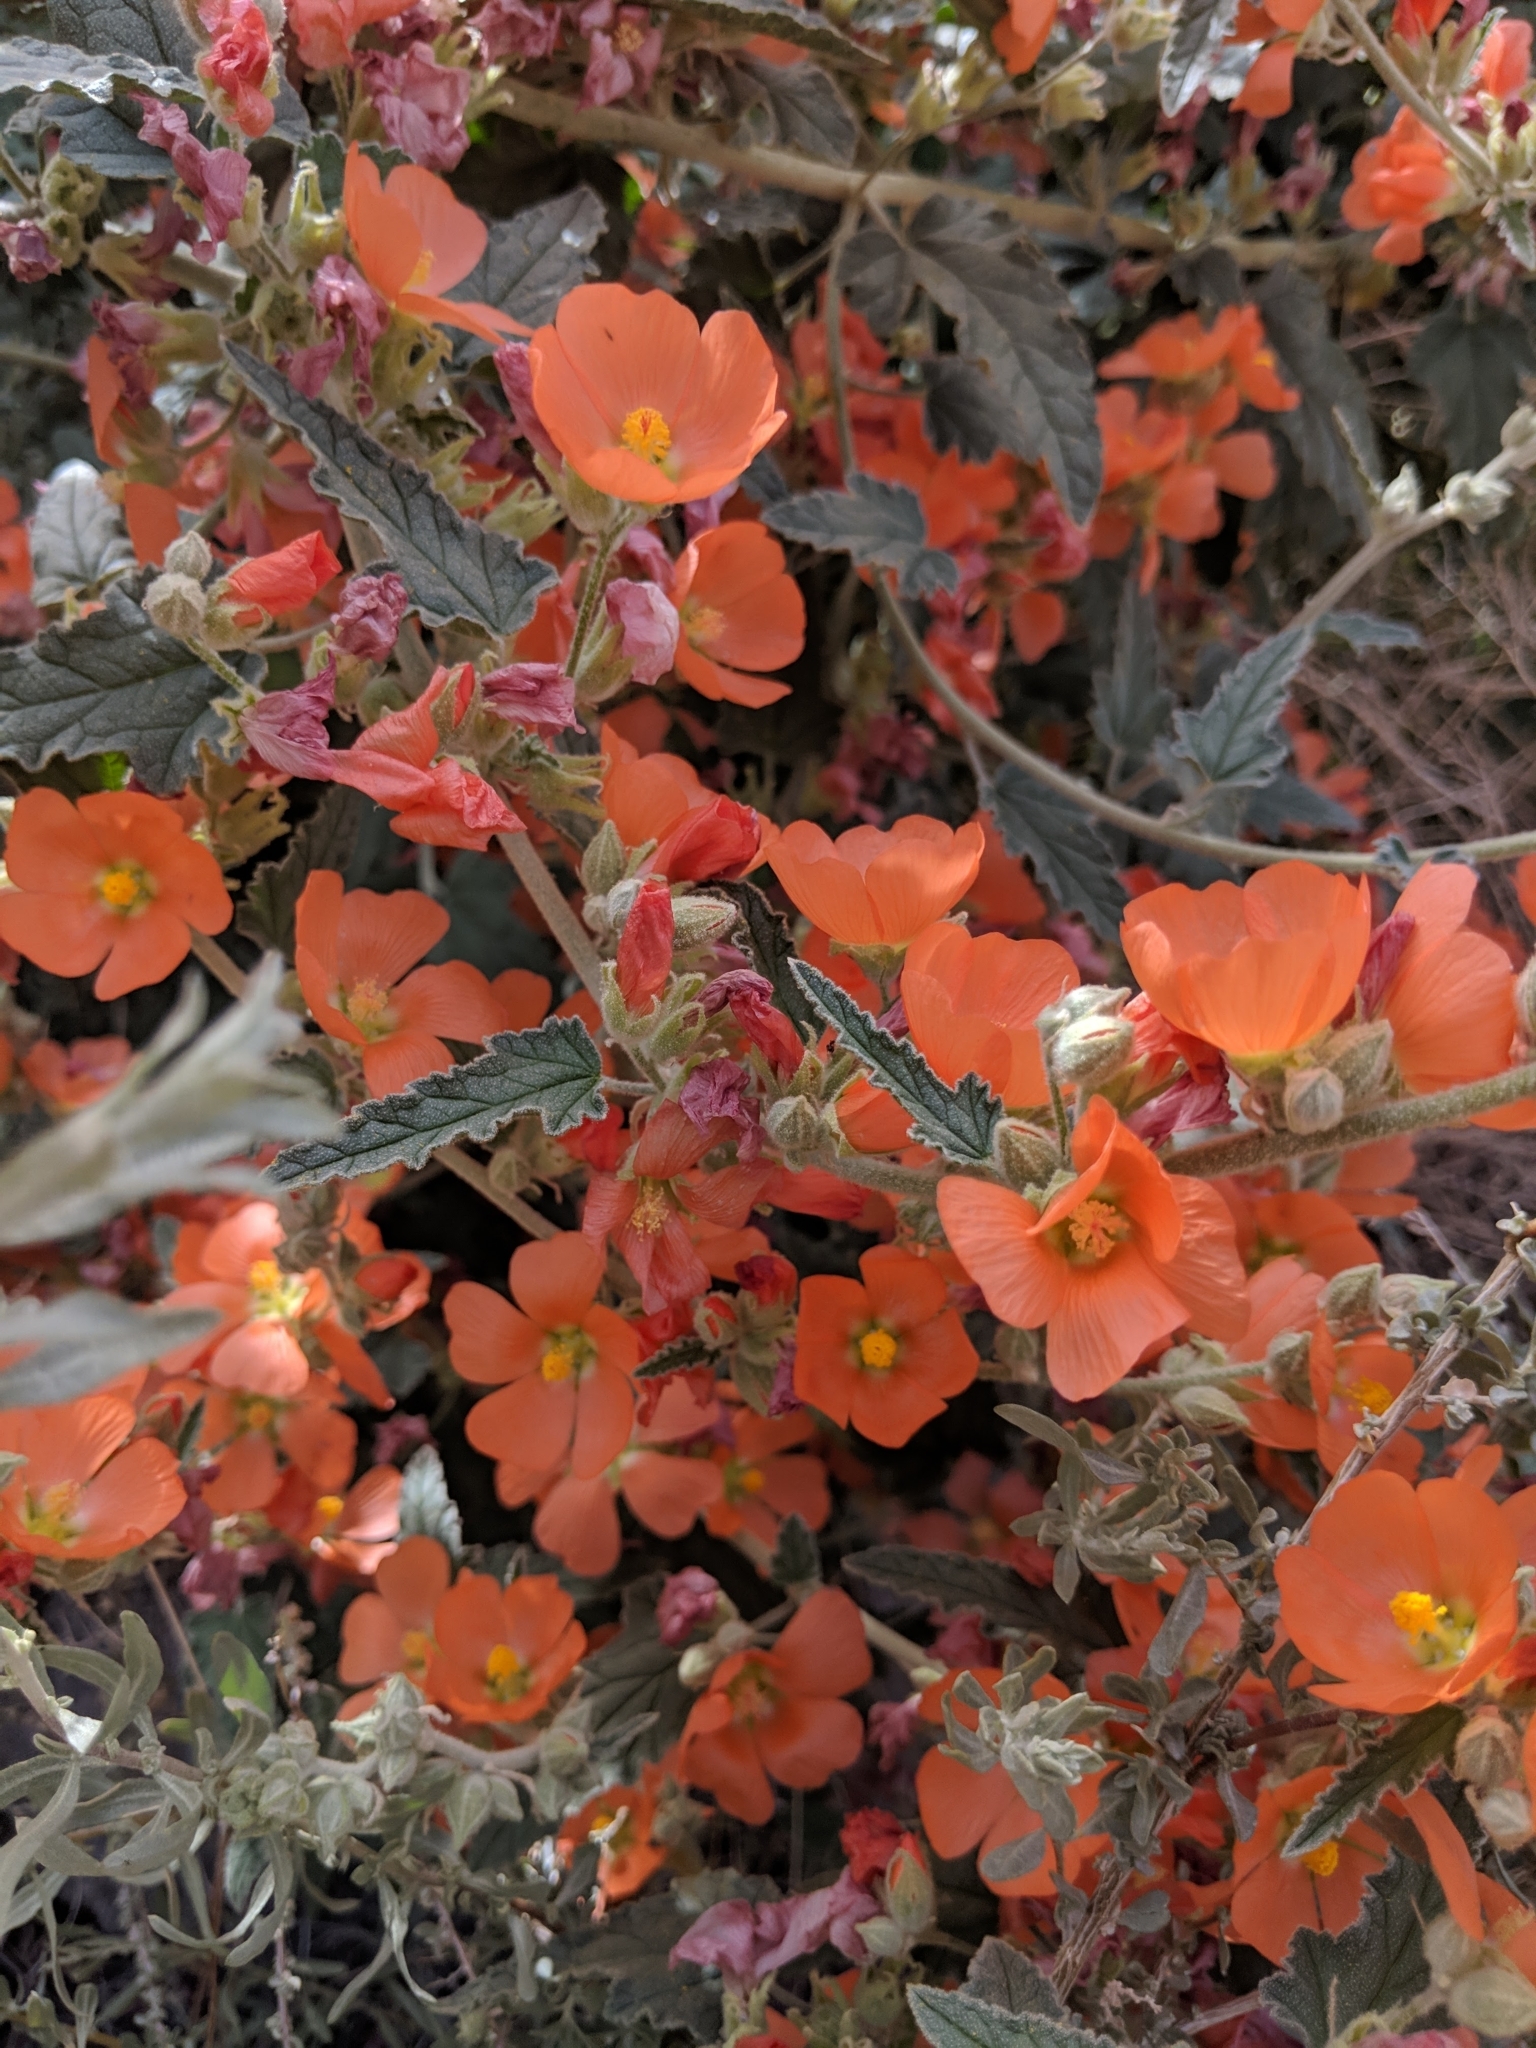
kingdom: Plantae
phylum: Tracheophyta
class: Magnoliopsida
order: Malvales
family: Malvaceae
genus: Sphaeralcea
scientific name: Sphaeralcea angustifolia
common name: Copper globe-mallow
